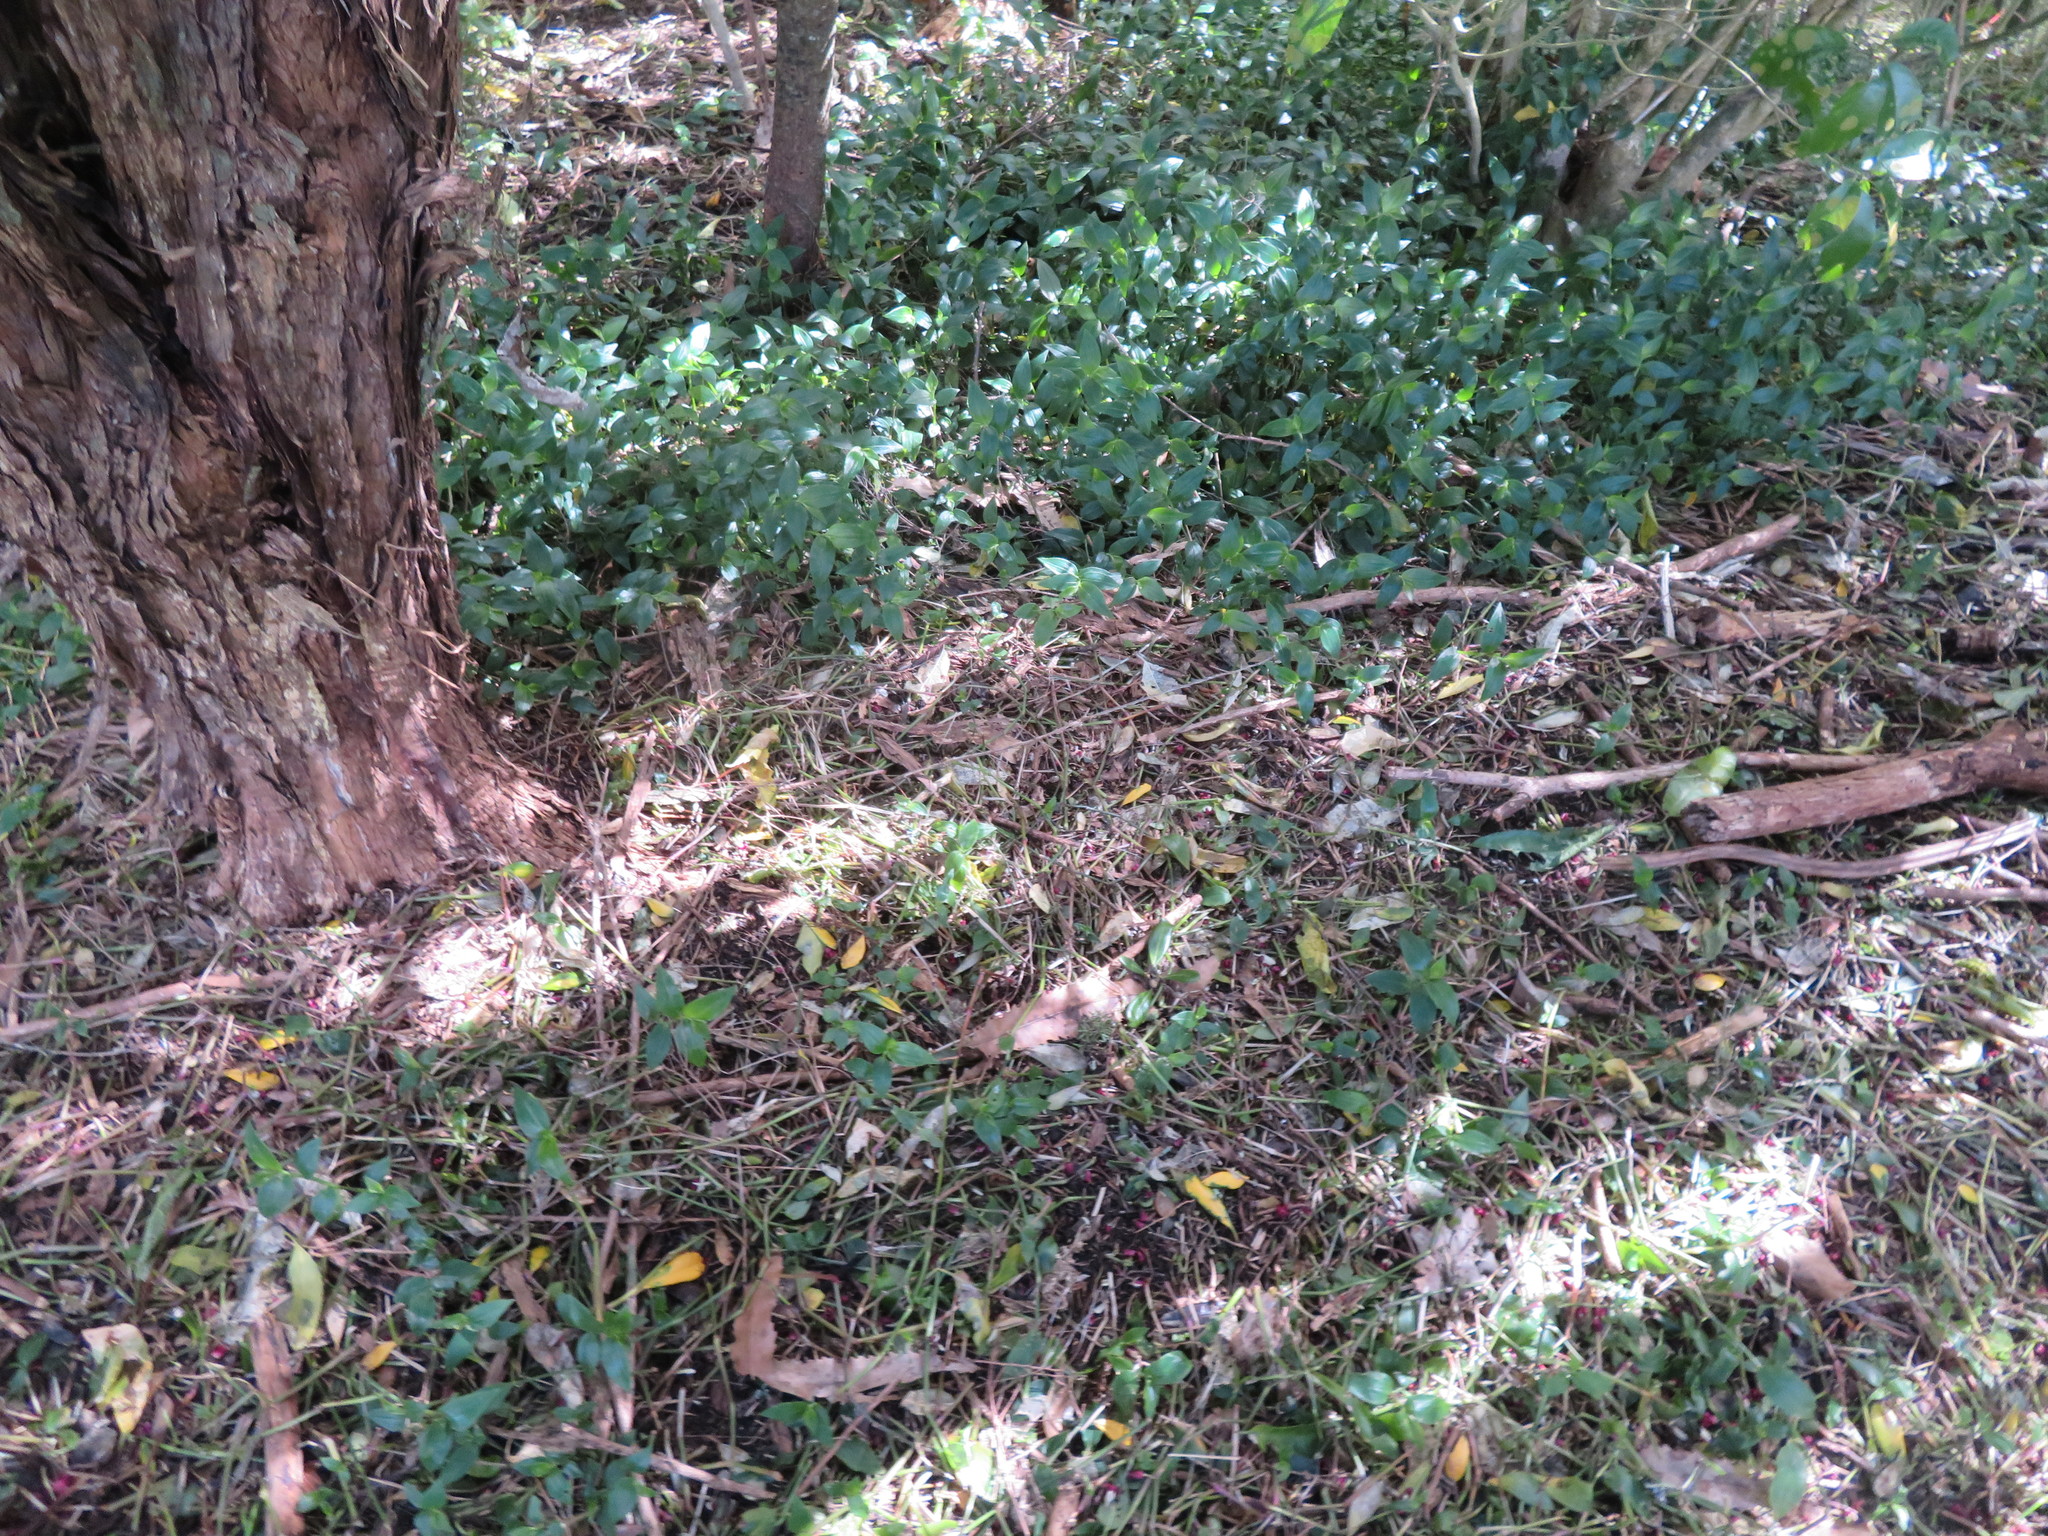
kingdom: Plantae
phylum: Tracheophyta
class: Liliopsida
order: Commelinales
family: Commelinaceae
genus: Tradescantia
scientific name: Tradescantia fluminensis
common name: Wandering-jew
